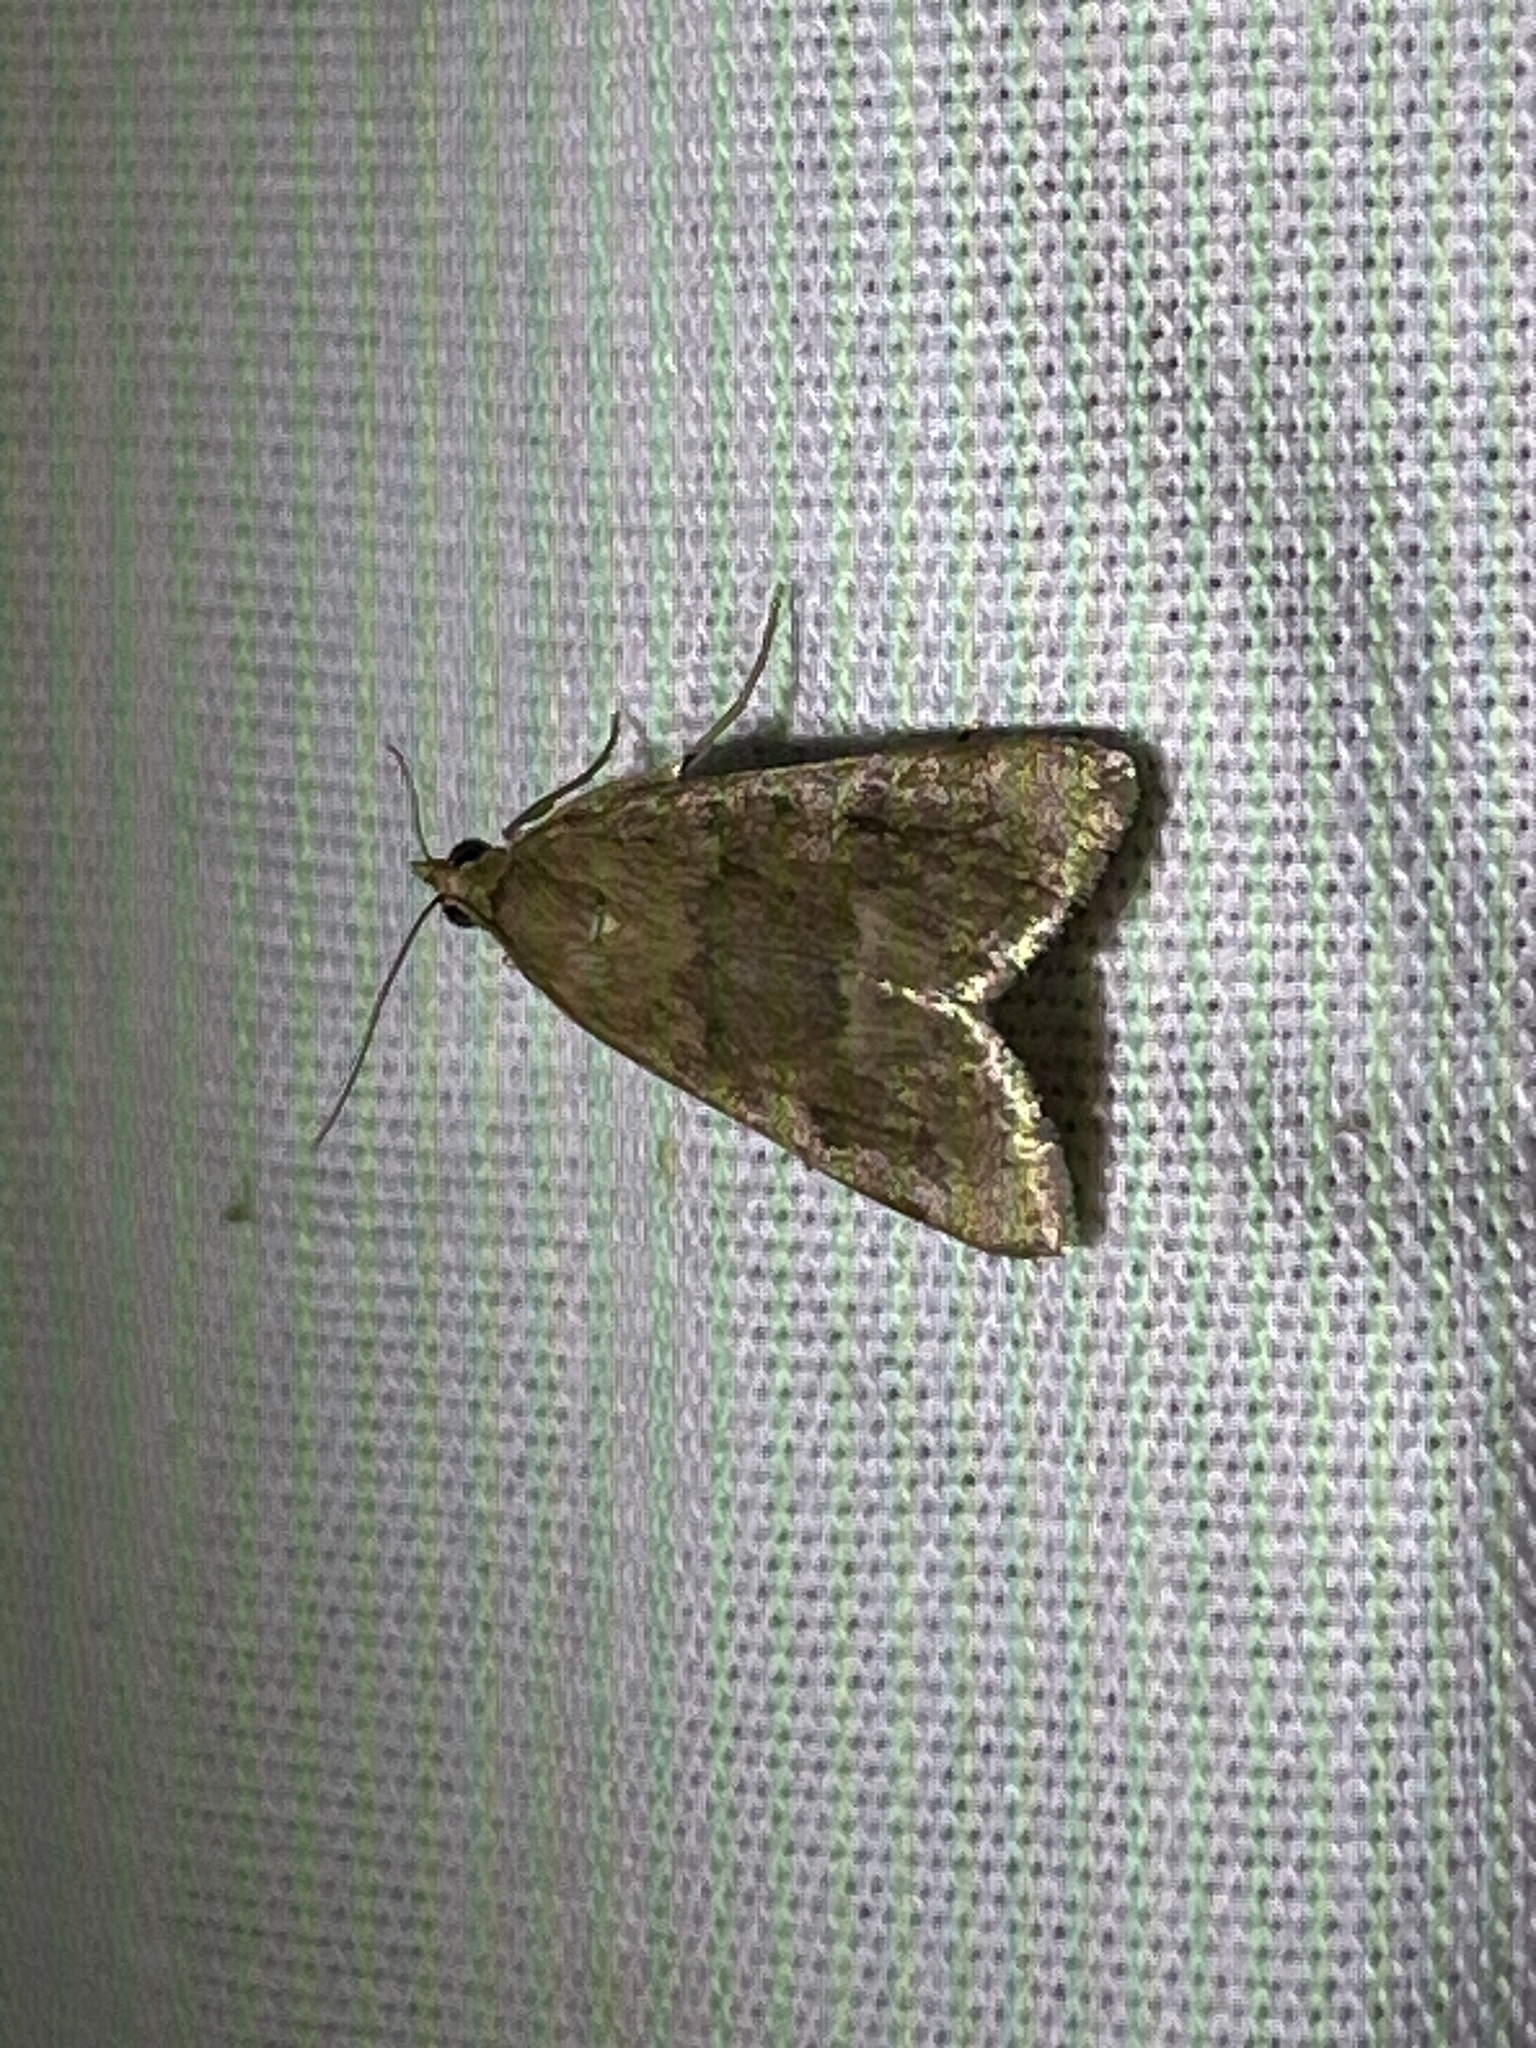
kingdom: Animalia
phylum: Arthropoda
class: Insecta
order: Lepidoptera
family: Crambidae
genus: Achyra
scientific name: Achyra rantalis
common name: Garden webworm
